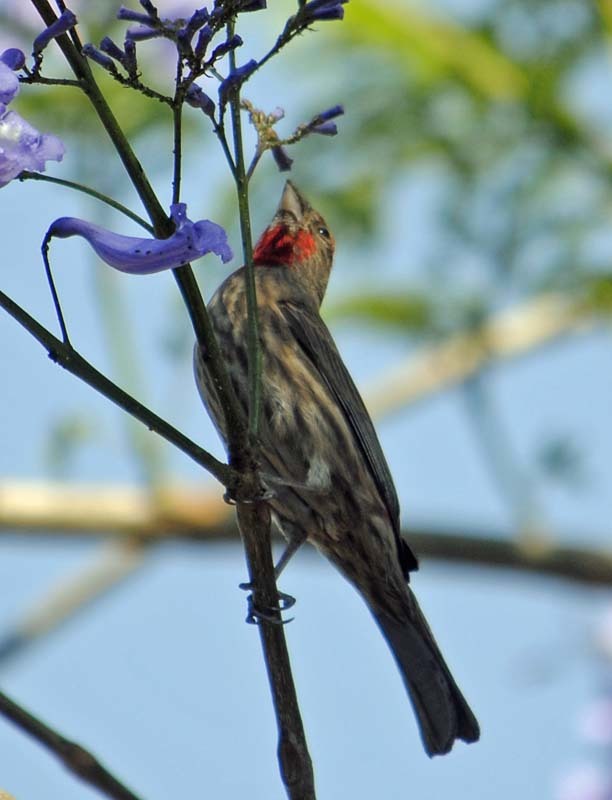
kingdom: Animalia
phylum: Chordata
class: Aves
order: Passeriformes
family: Fringillidae
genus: Haemorhous
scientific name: Haemorhous mexicanus
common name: House finch
